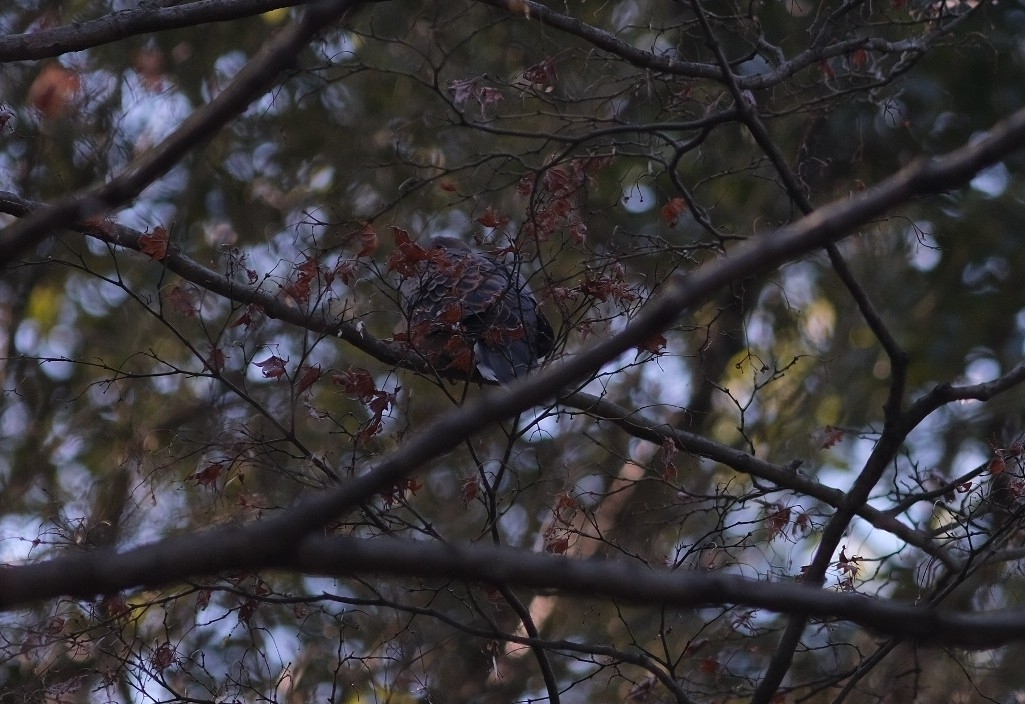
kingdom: Animalia
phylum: Chordata
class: Aves
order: Columbiformes
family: Columbidae
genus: Streptopelia
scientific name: Streptopelia orientalis
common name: Oriental turtle dove
